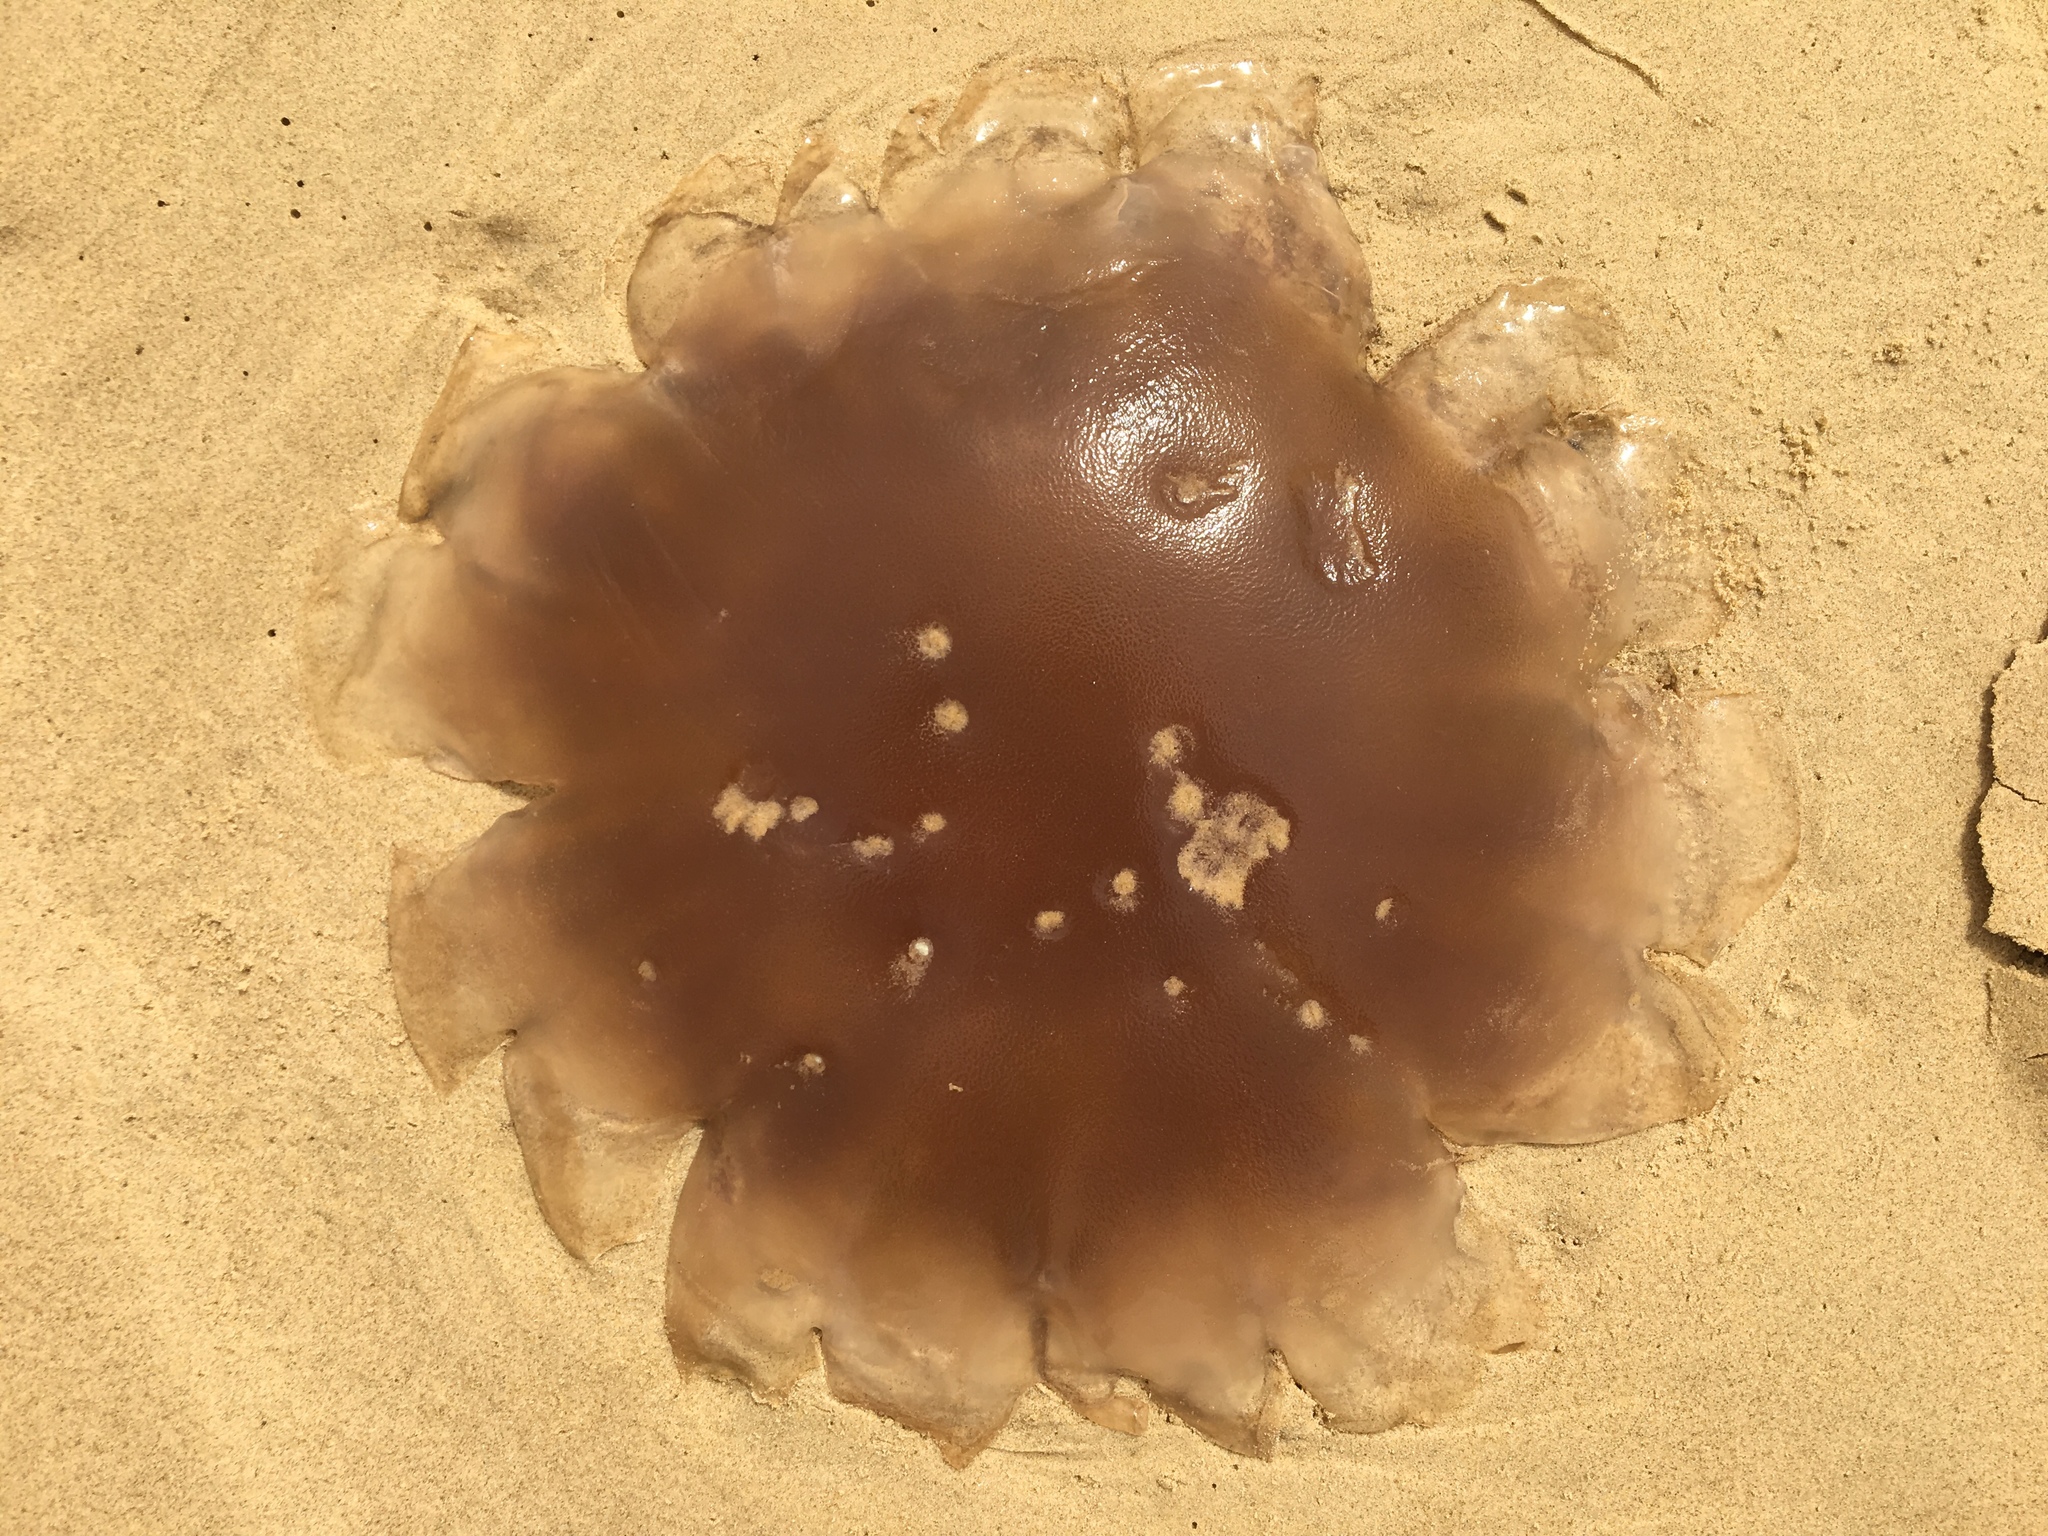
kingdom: Animalia
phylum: Cnidaria
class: Scyphozoa
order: Semaeostomeae
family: Cyaneidae
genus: Cyanea
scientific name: Cyanea rosea
